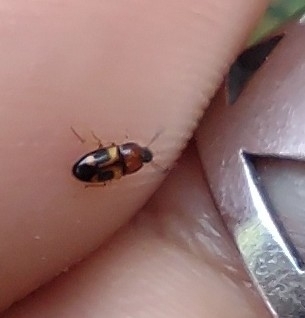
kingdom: Animalia
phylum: Arthropoda
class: Insecta
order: Coleoptera
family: Tenebrionidae
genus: Poecilocrypticus
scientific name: Poecilocrypticus formicophilus
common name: Darkling beetle
